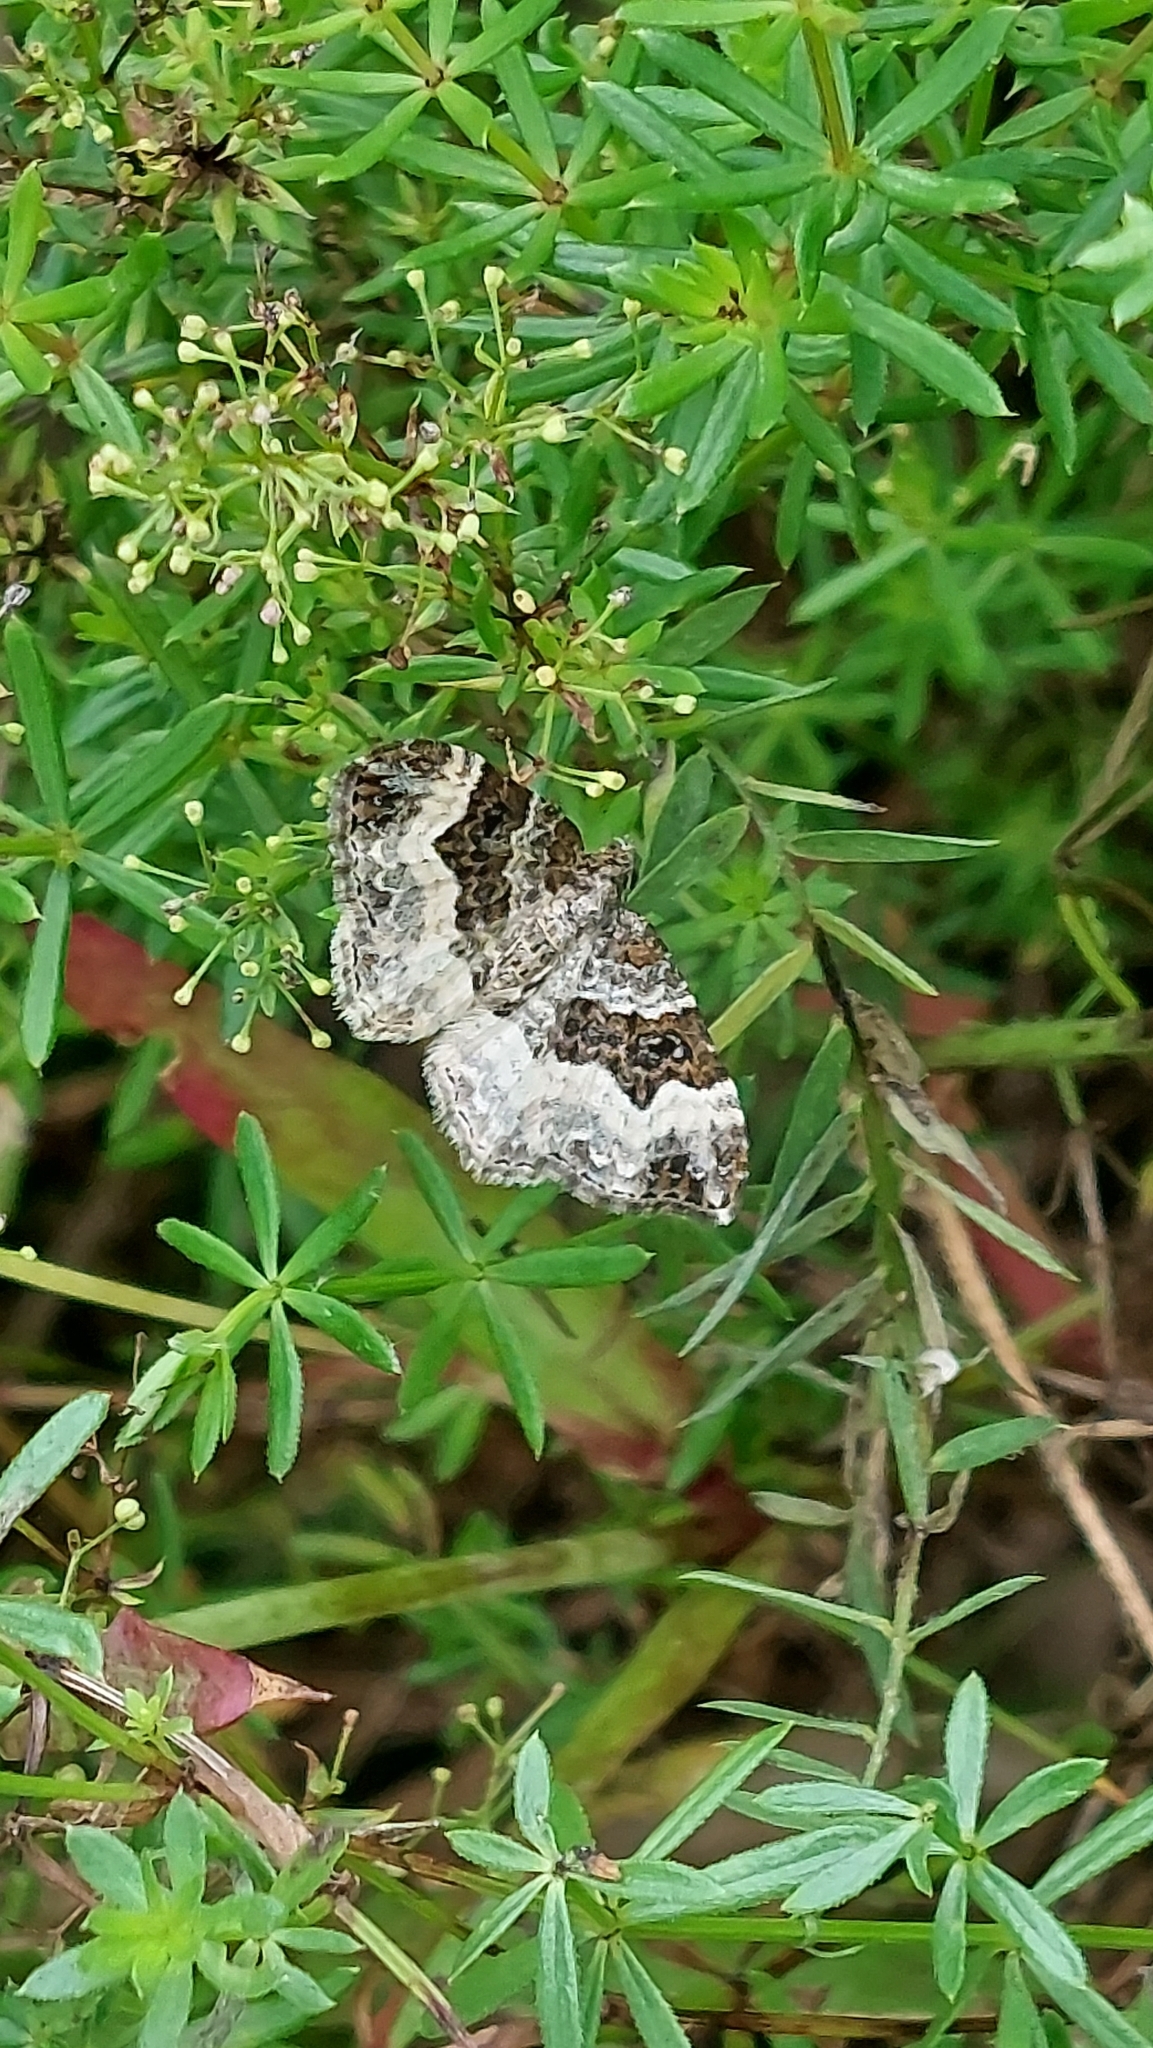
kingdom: Animalia
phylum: Arthropoda
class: Insecta
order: Lepidoptera
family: Geometridae
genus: Epirrhoe
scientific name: Epirrhoe alternata
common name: Common carpet
